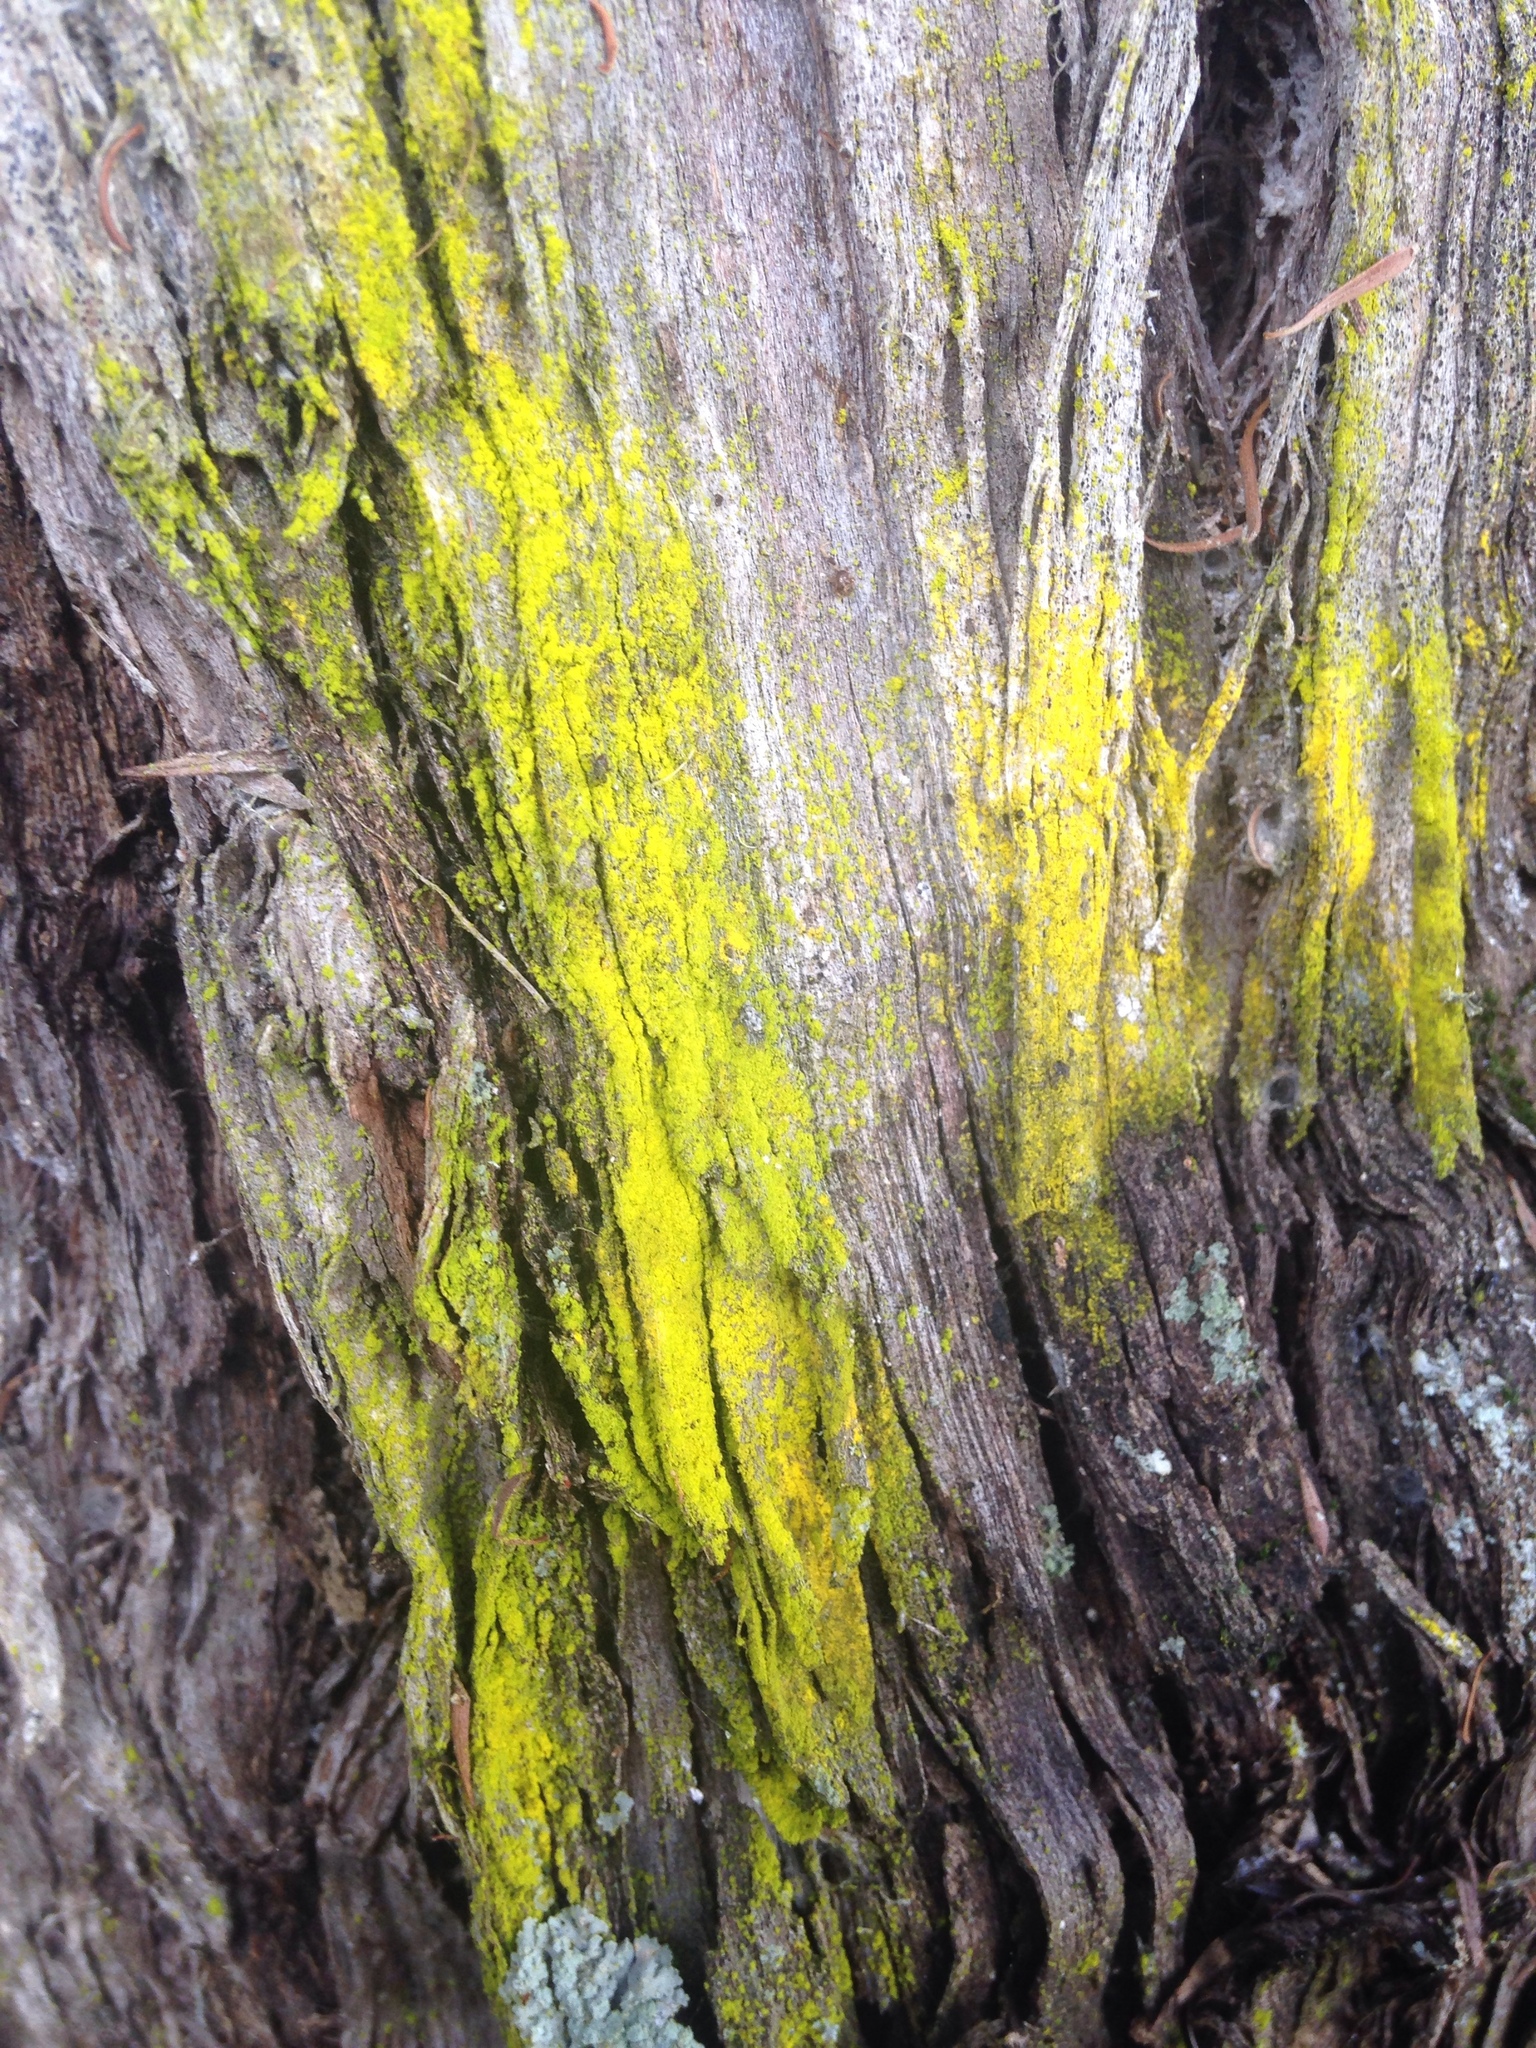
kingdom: Fungi
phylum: Ascomycota
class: Arthoniomycetes
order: Arthoniales
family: Chrysotrichaceae
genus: Chrysothrix
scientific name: Chrysothrix xanthina
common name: Common gold-dust
